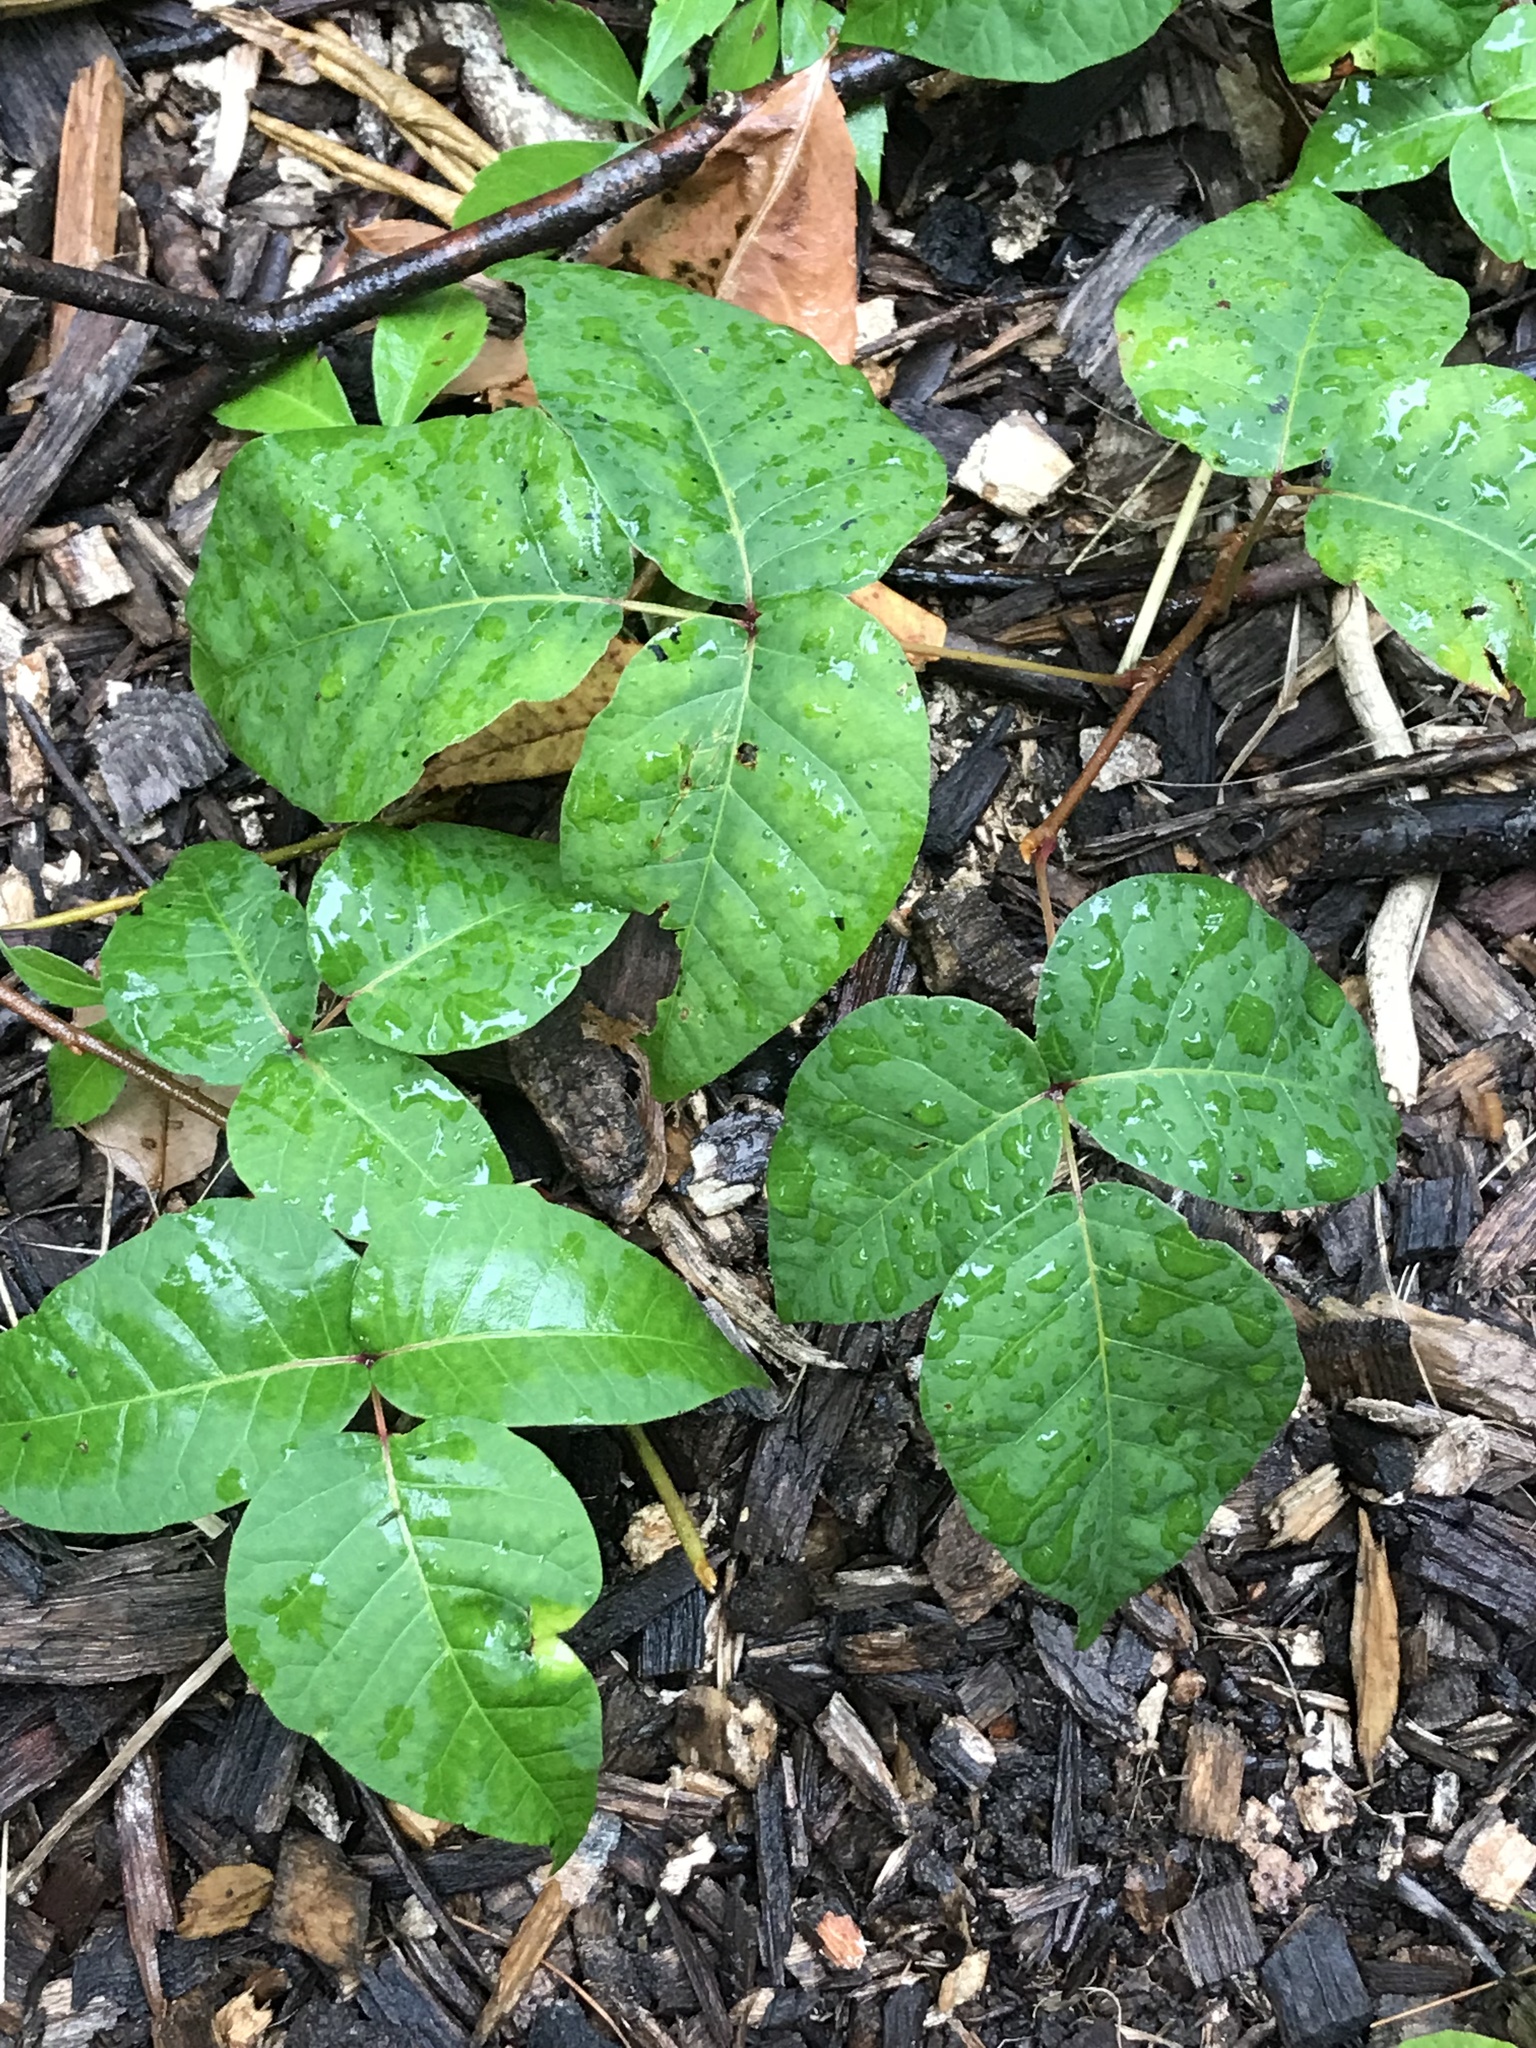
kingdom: Plantae
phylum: Tracheophyta
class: Magnoliopsida
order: Sapindales
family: Anacardiaceae
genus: Toxicodendron
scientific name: Toxicodendron radicans
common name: Poison ivy
